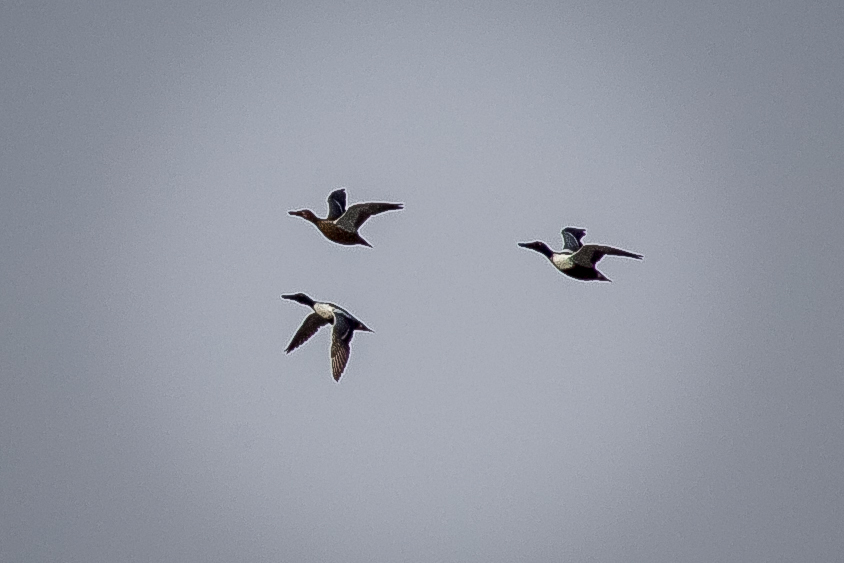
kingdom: Animalia
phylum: Chordata
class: Aves
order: Anseriformes
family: Anatidae
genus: Spatula
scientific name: Spatula clypeata
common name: Northern shoveler
